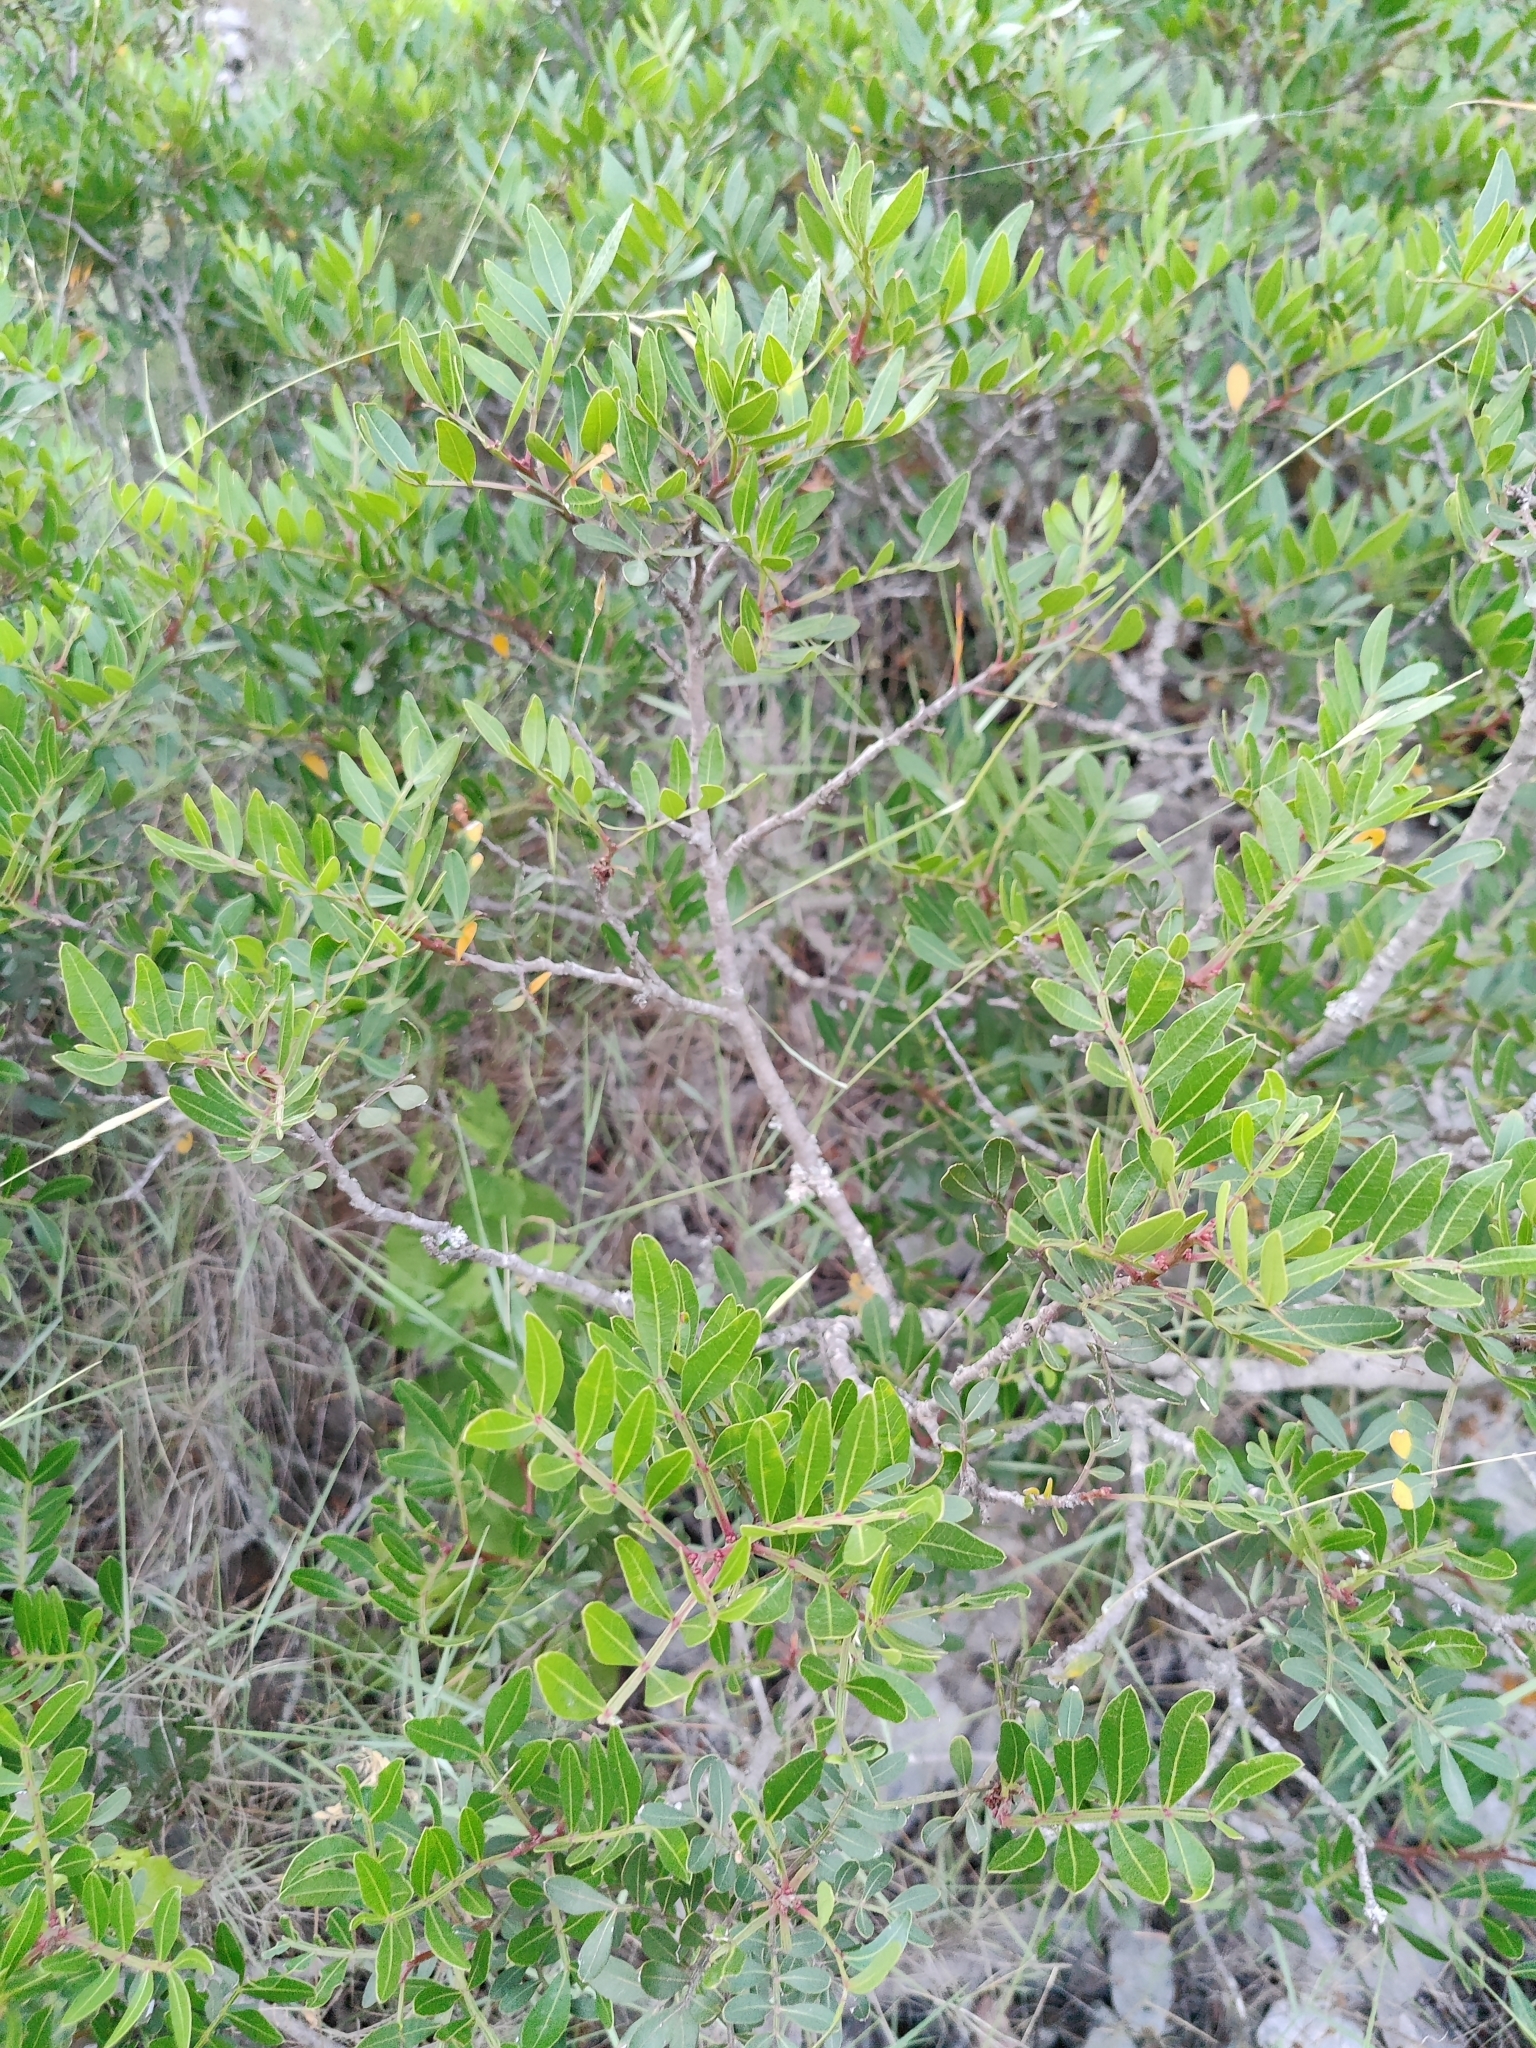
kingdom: Plantae
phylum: Tracheophyta
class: Magnoliopsida
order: Sapindales
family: Anacardiaceae
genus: Pistacia
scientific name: Pistacia lentiscus
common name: Lentisk
